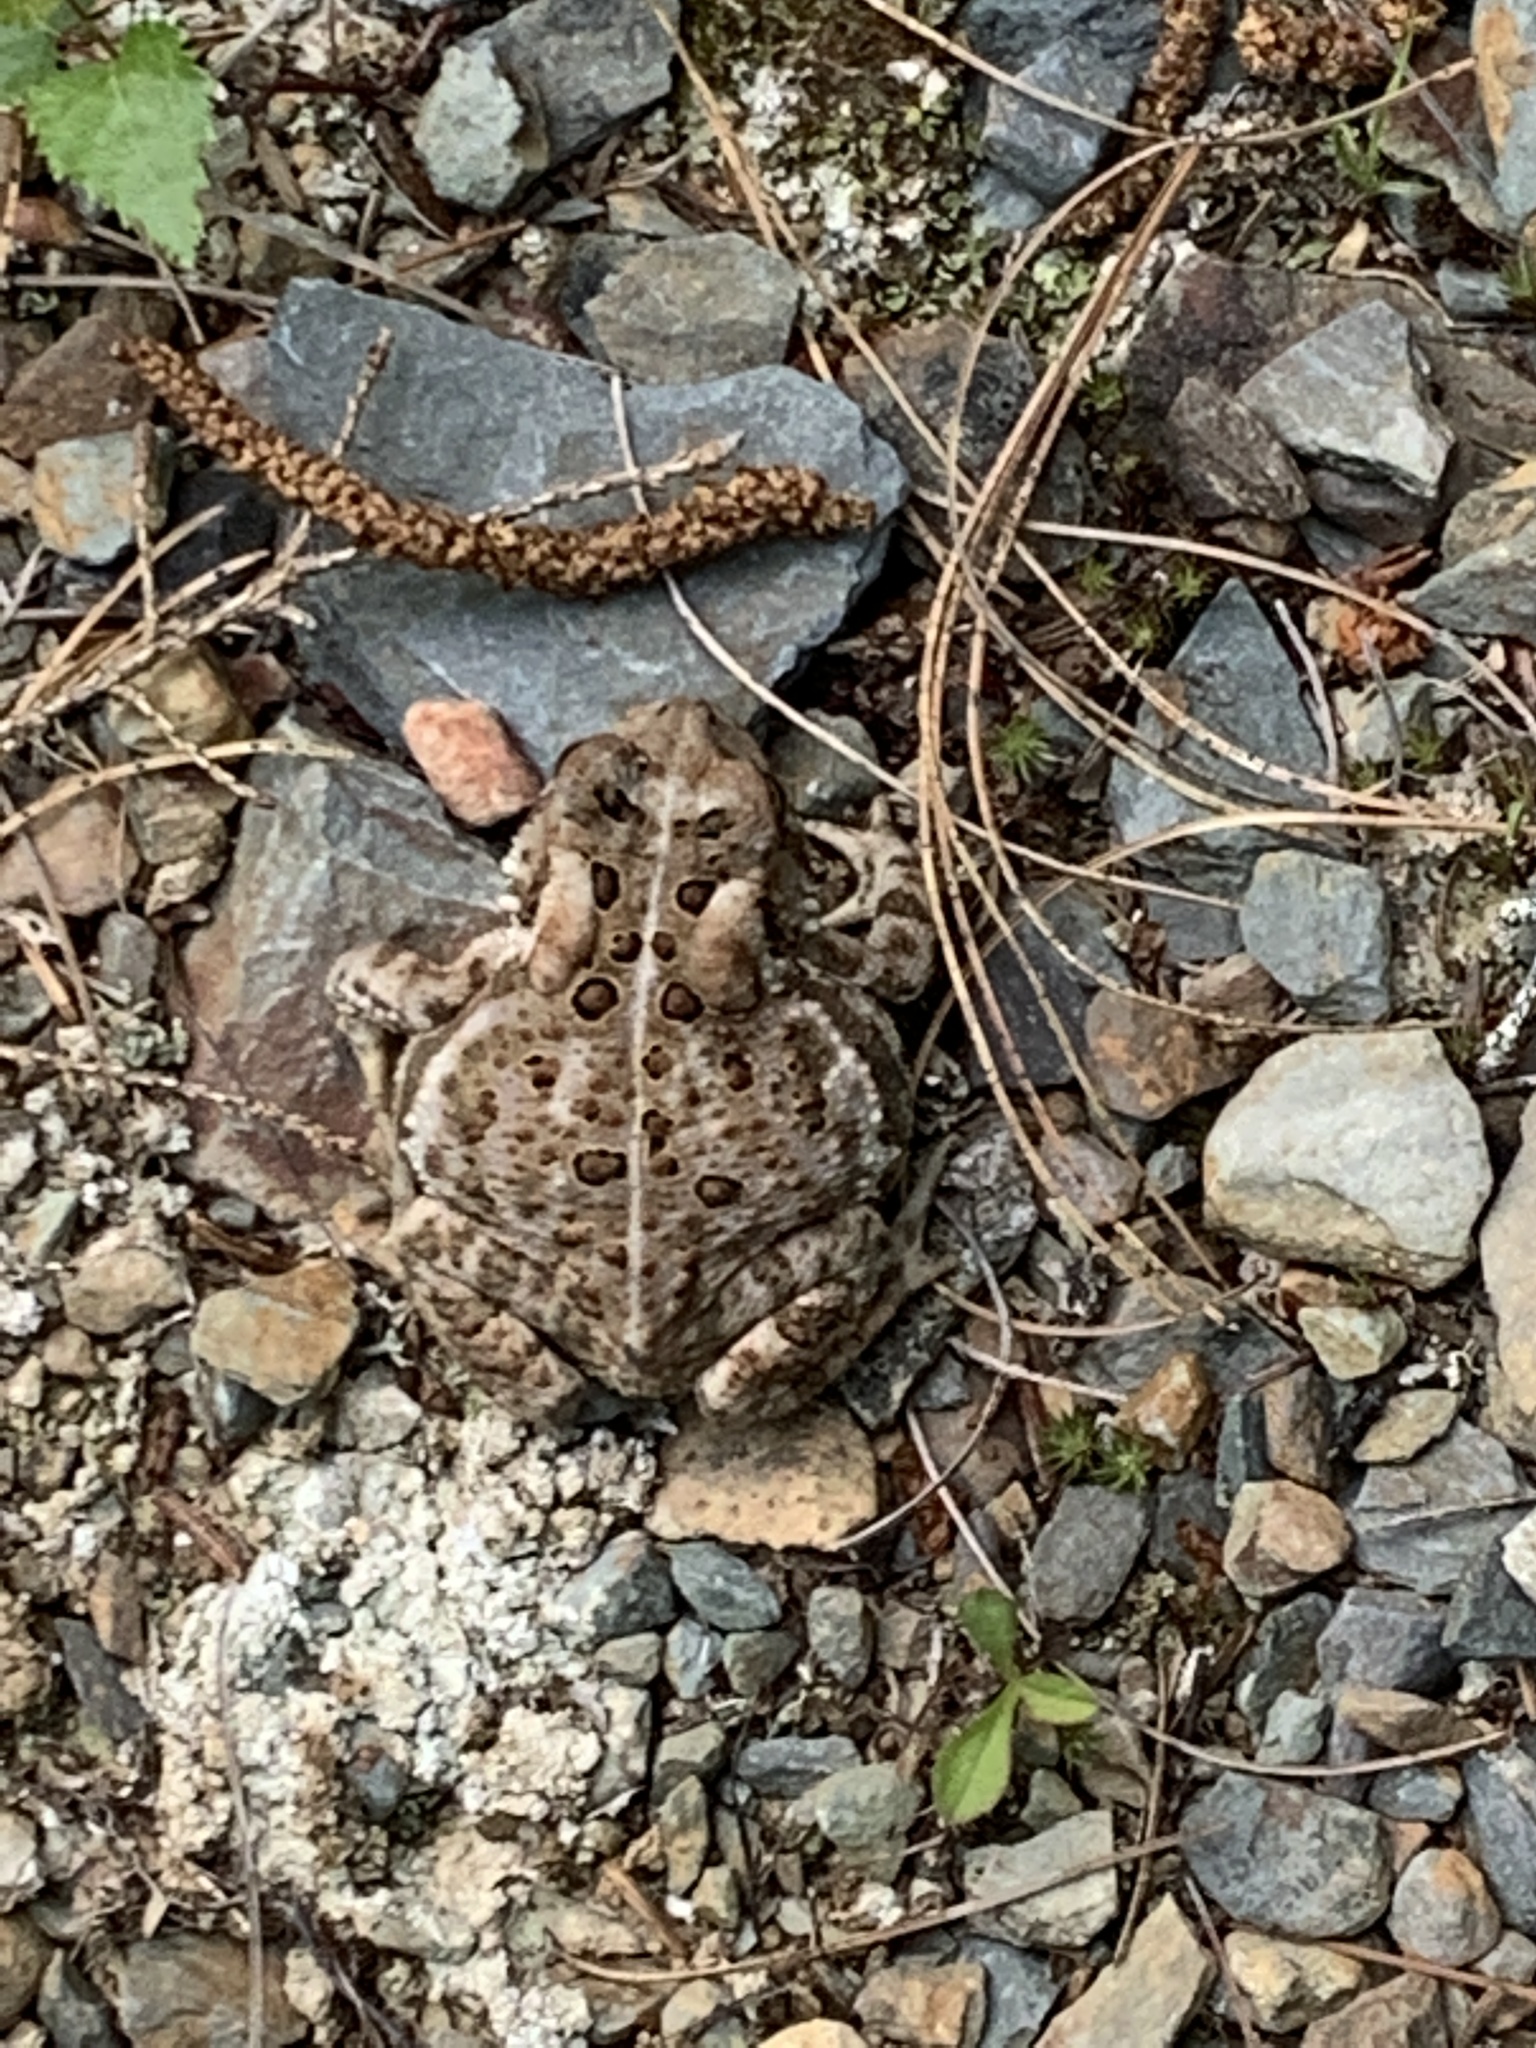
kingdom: Animalia
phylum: Chordata
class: Amphibia
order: Anura
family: Bufonidae
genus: Anaxyrus
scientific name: Anaxyrus americanus
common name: American toad
